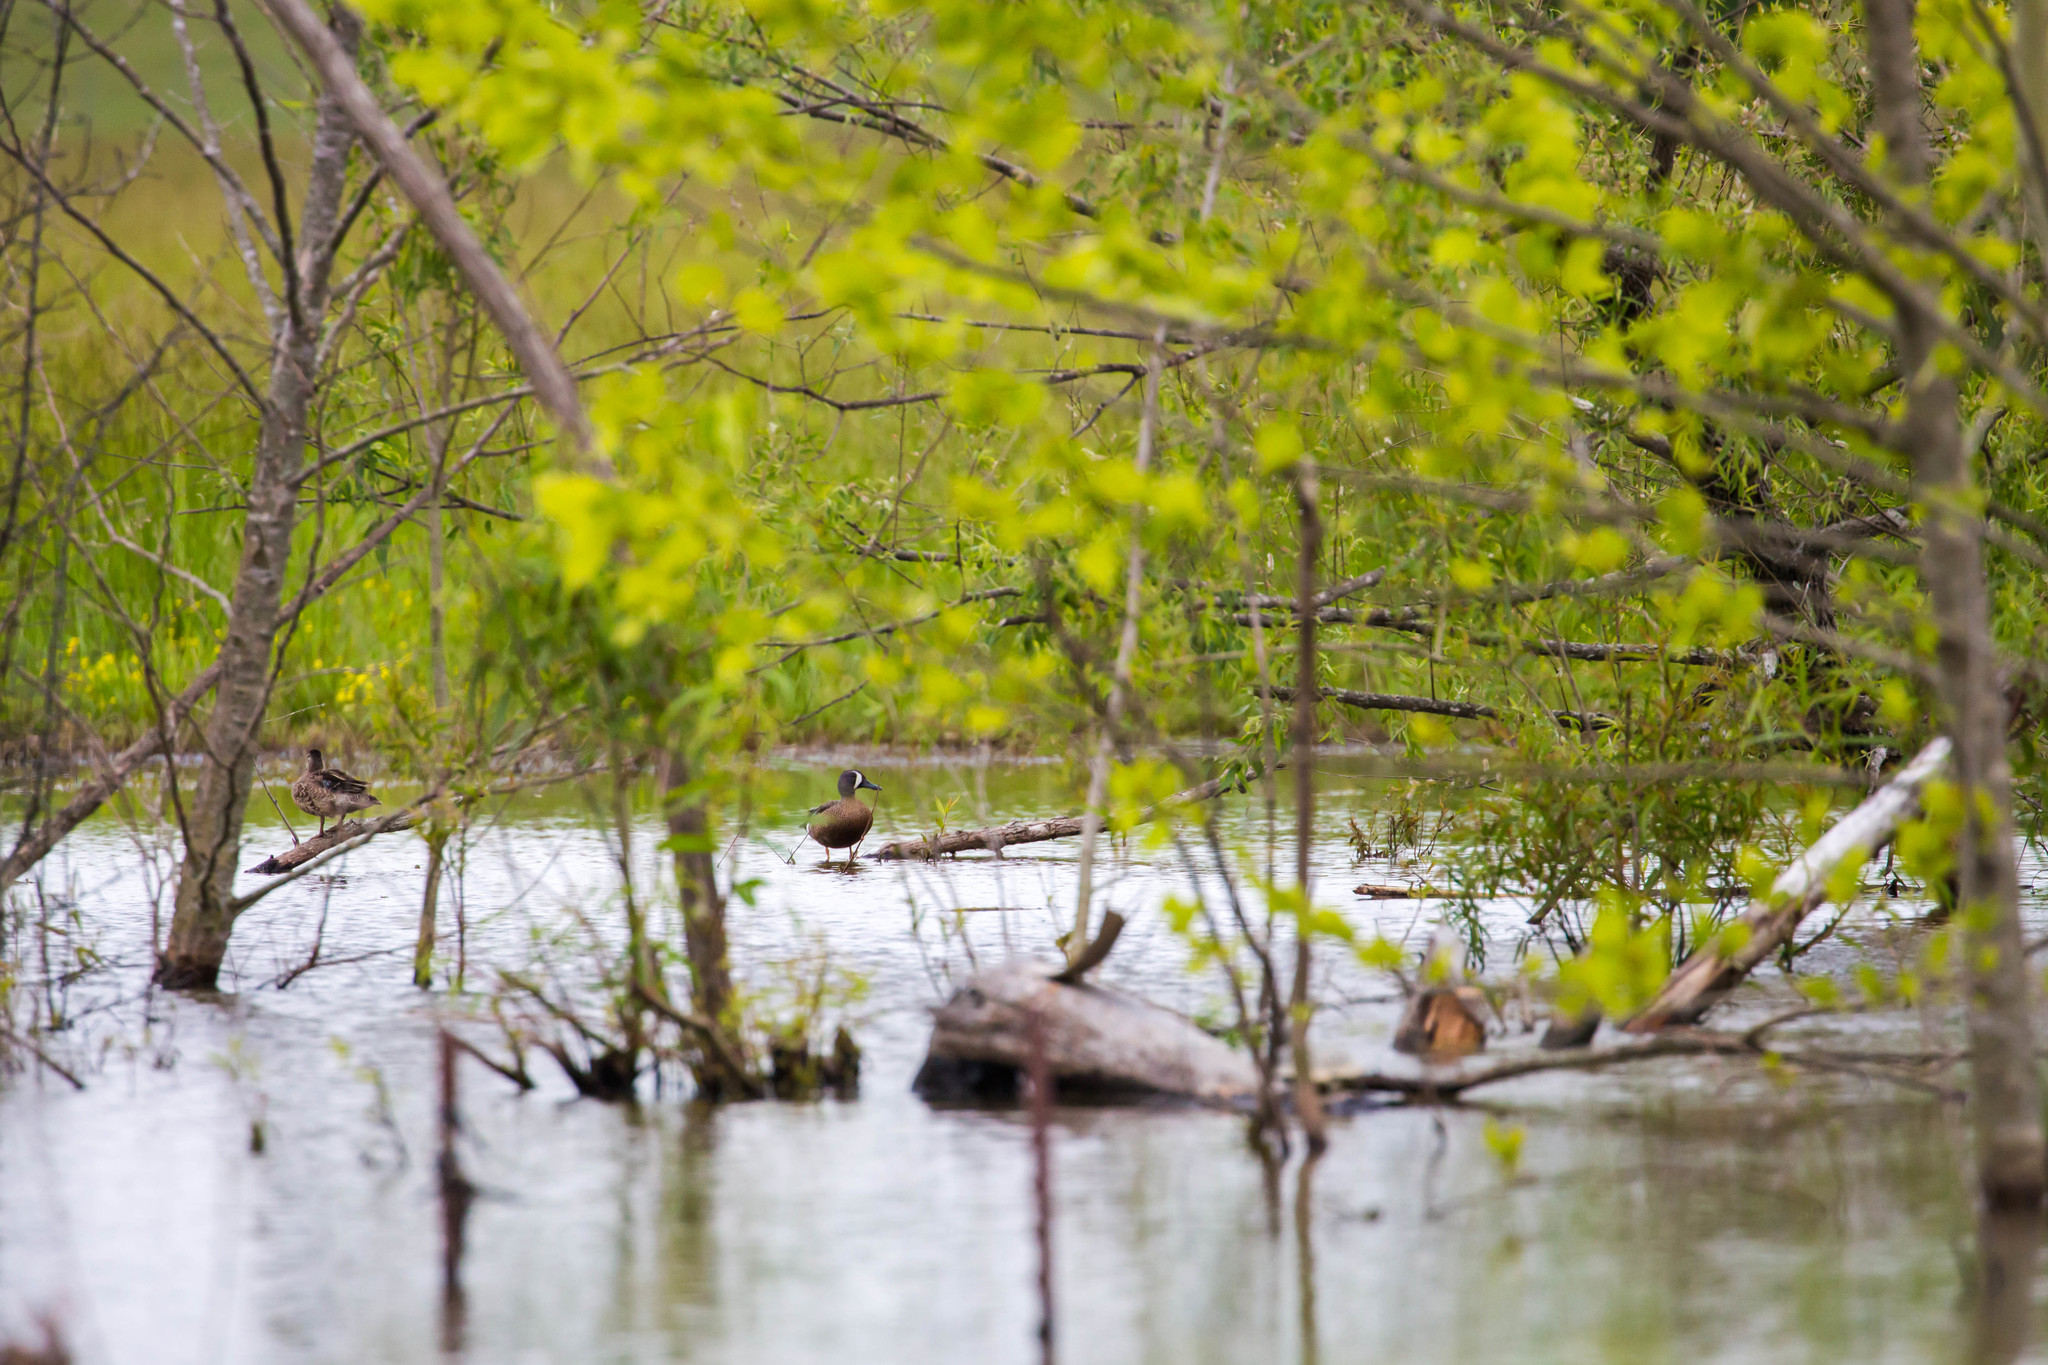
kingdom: Animalia
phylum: Chordata
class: Aves
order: Anseriformes
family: Anatidae
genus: Spatula
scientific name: Spatula discors
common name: Blue-winged teal
